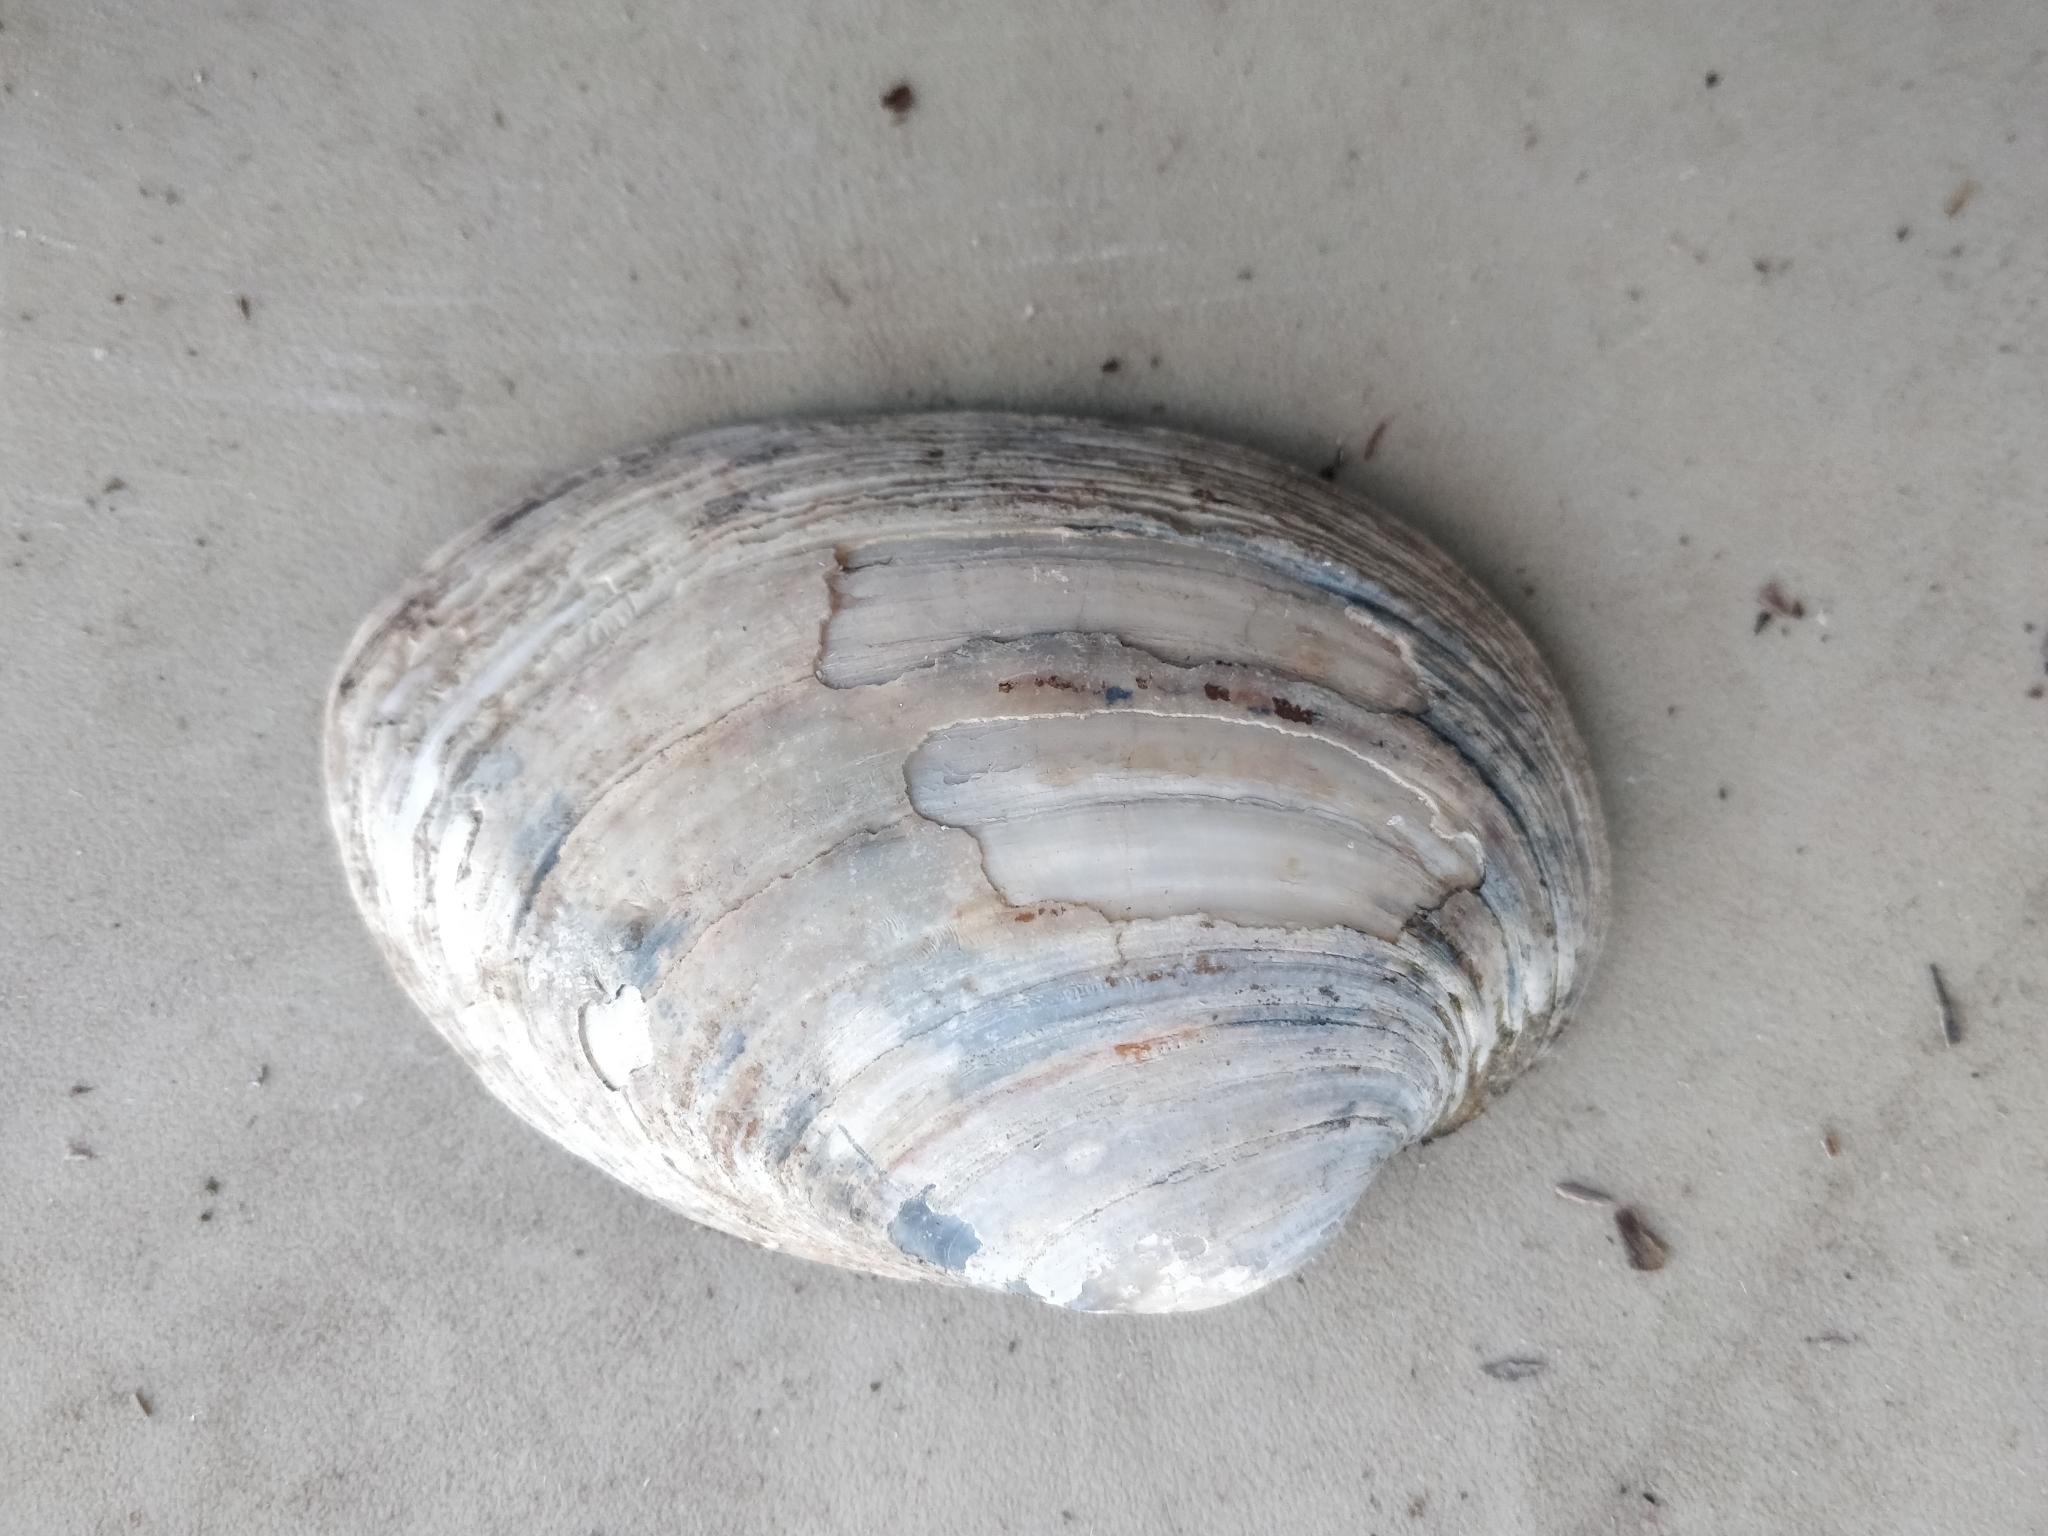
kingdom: Animalia
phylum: Mollusca
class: Bivalvia
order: Unionida
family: Unionidae
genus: Lampsilis
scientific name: Lampsilis cardium
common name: Plain pocketbook
